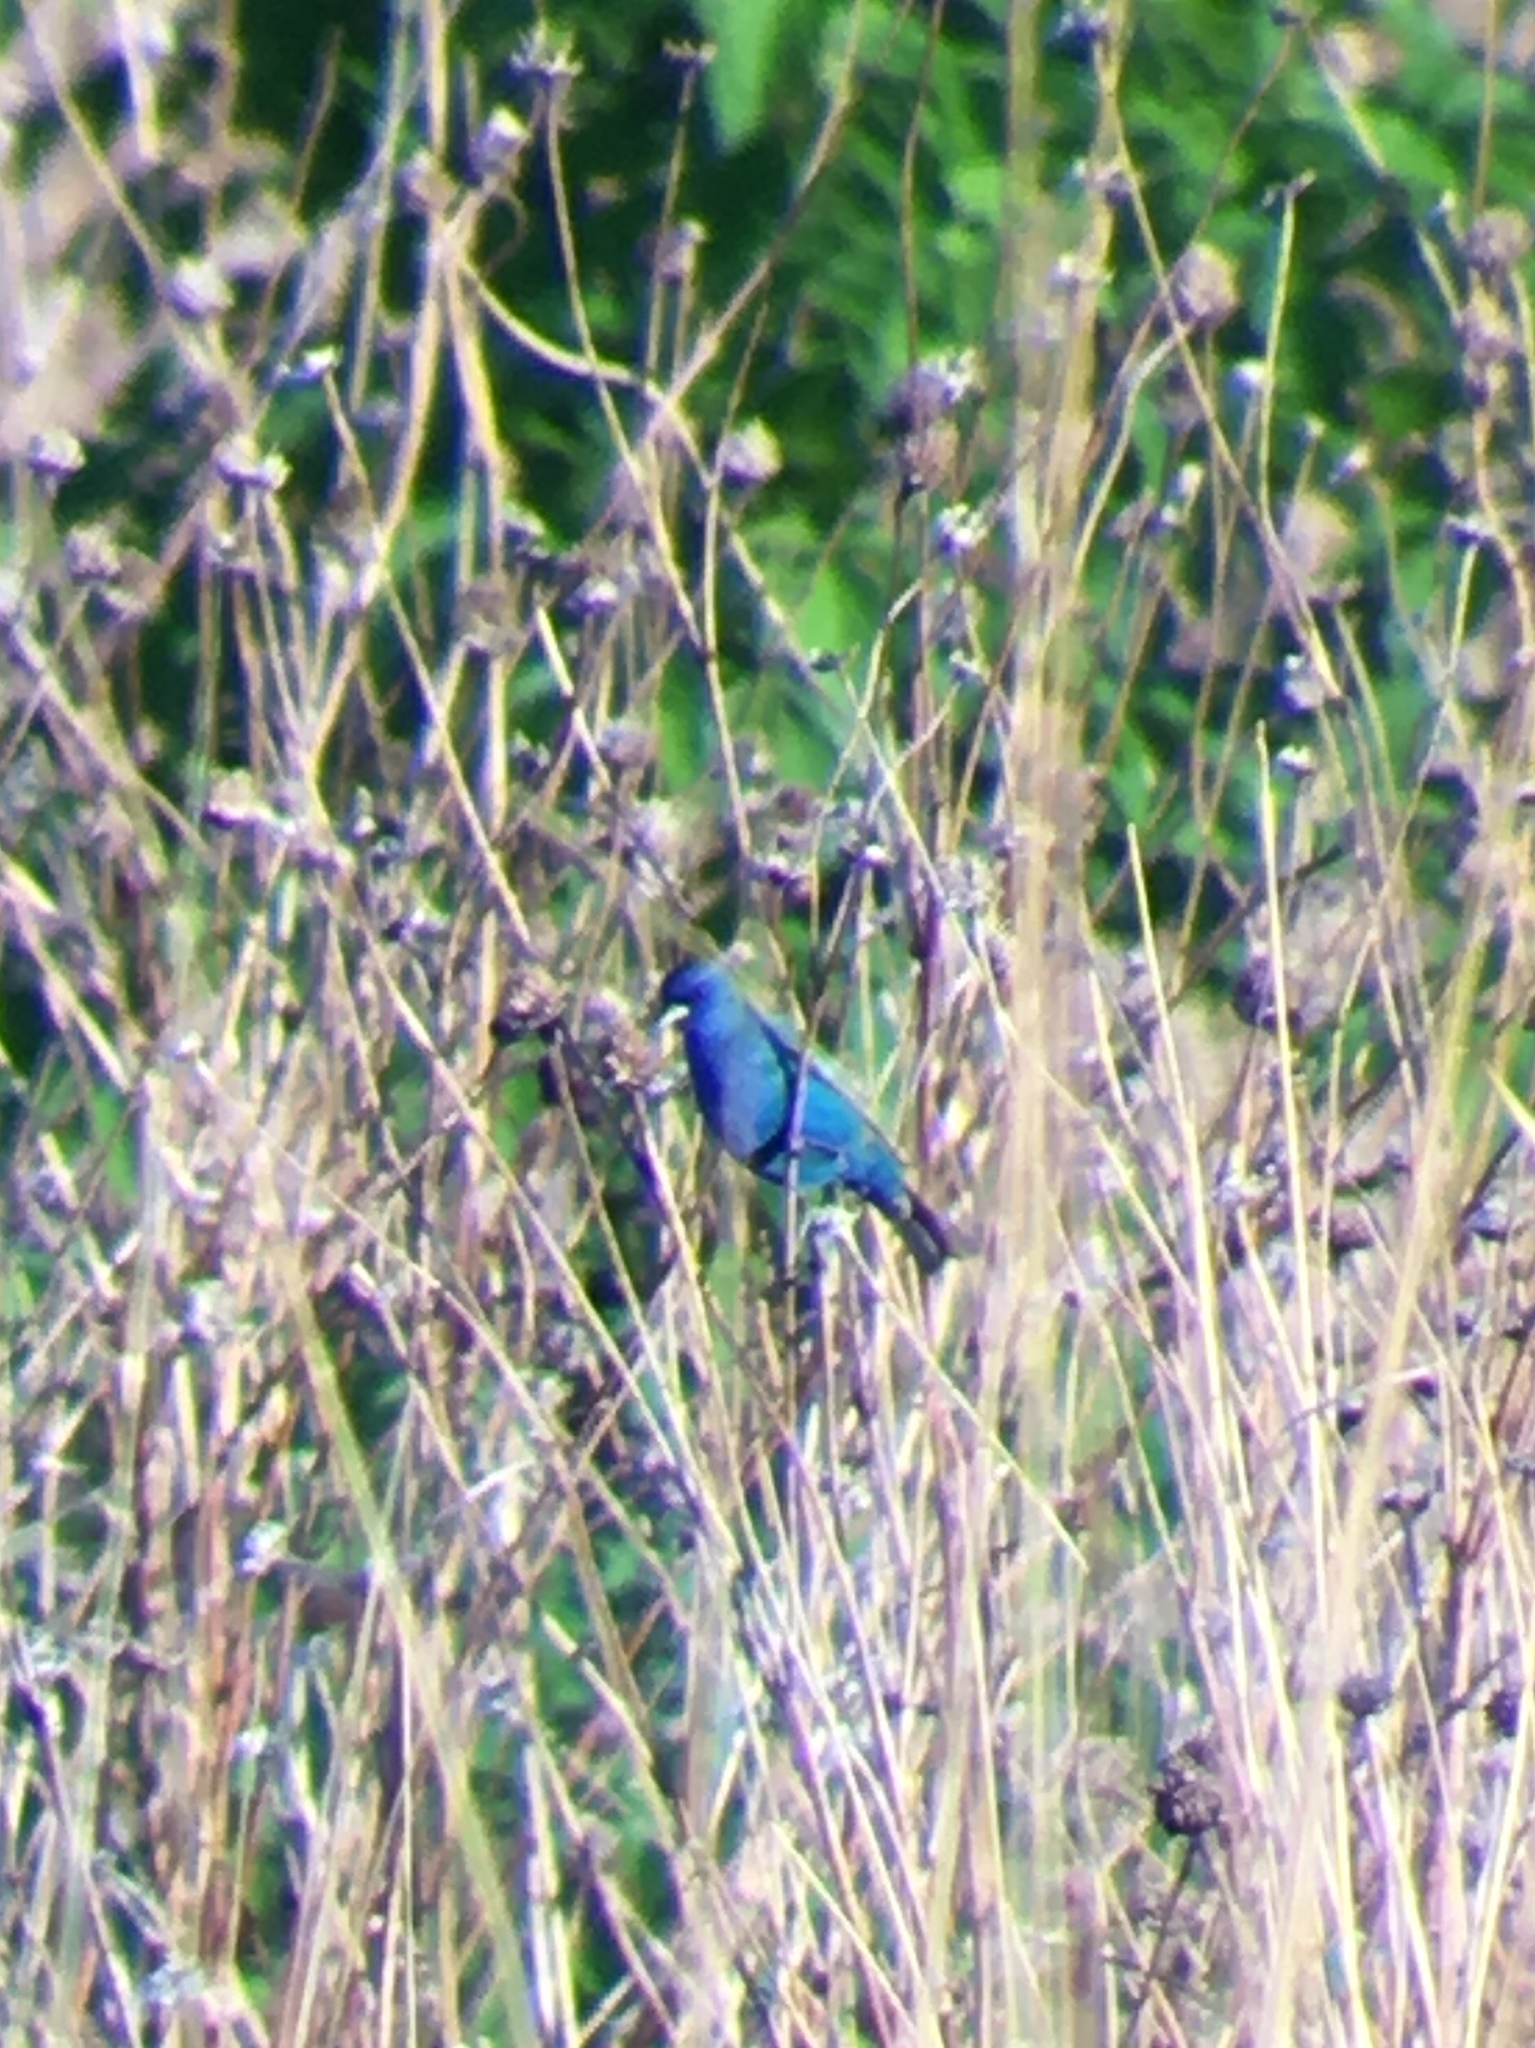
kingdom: Animalia
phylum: Chordata
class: Aves
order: Passeriformes
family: Cardinalidae
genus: Passerina
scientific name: Passerina cyanea
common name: Indigo bunting
